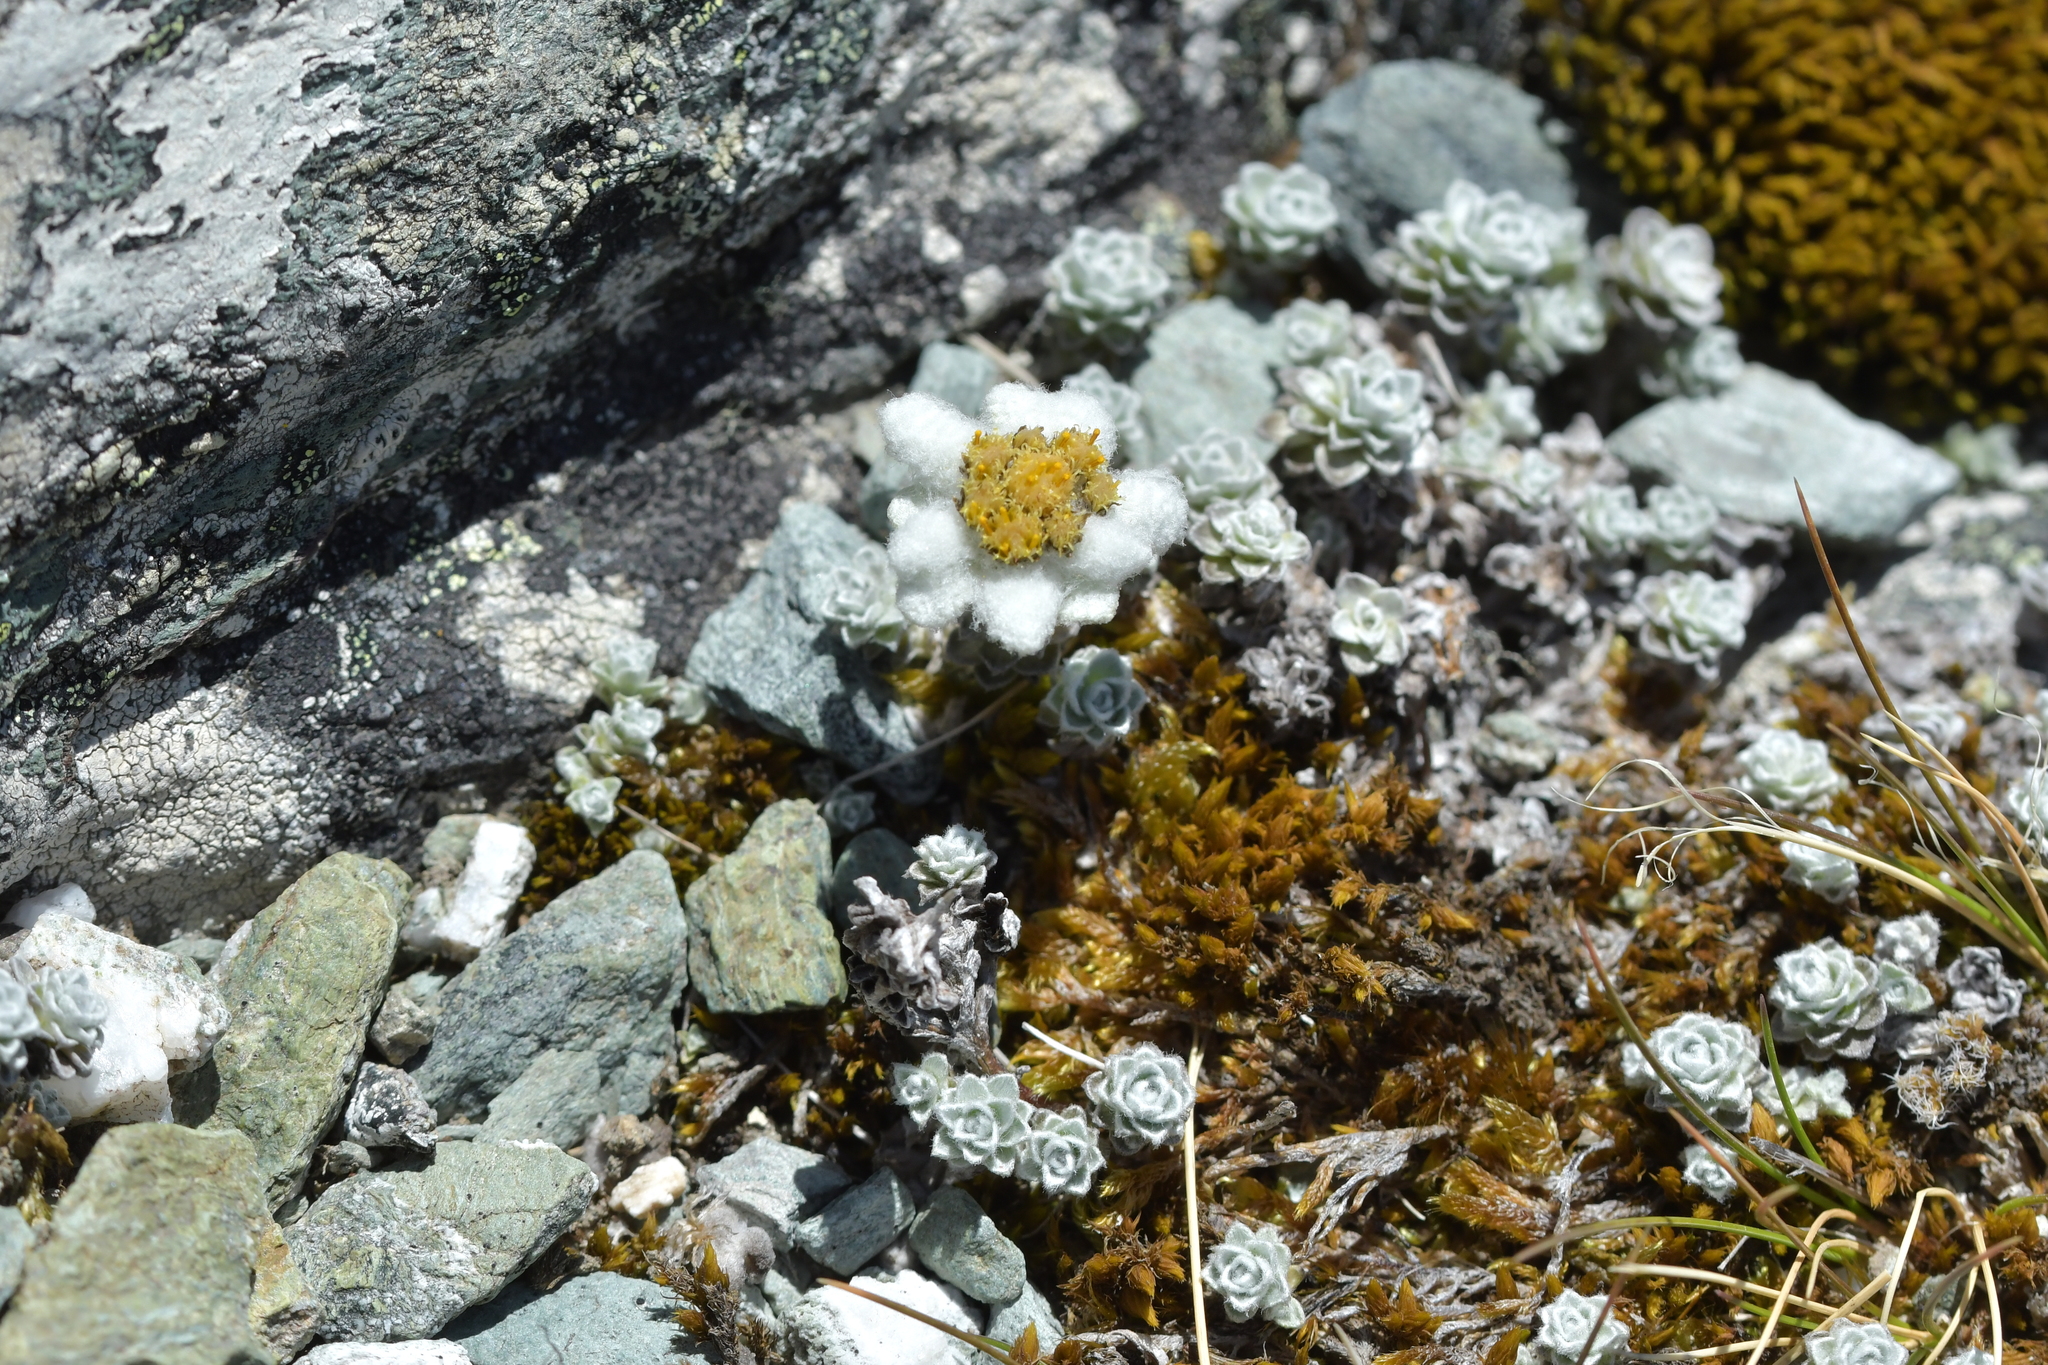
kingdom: Plantae
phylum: Tracheophyta
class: Magnoliopsida
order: Asterales
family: Asteraceae
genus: Leucogenes
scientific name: Leucogenes grandiceps
